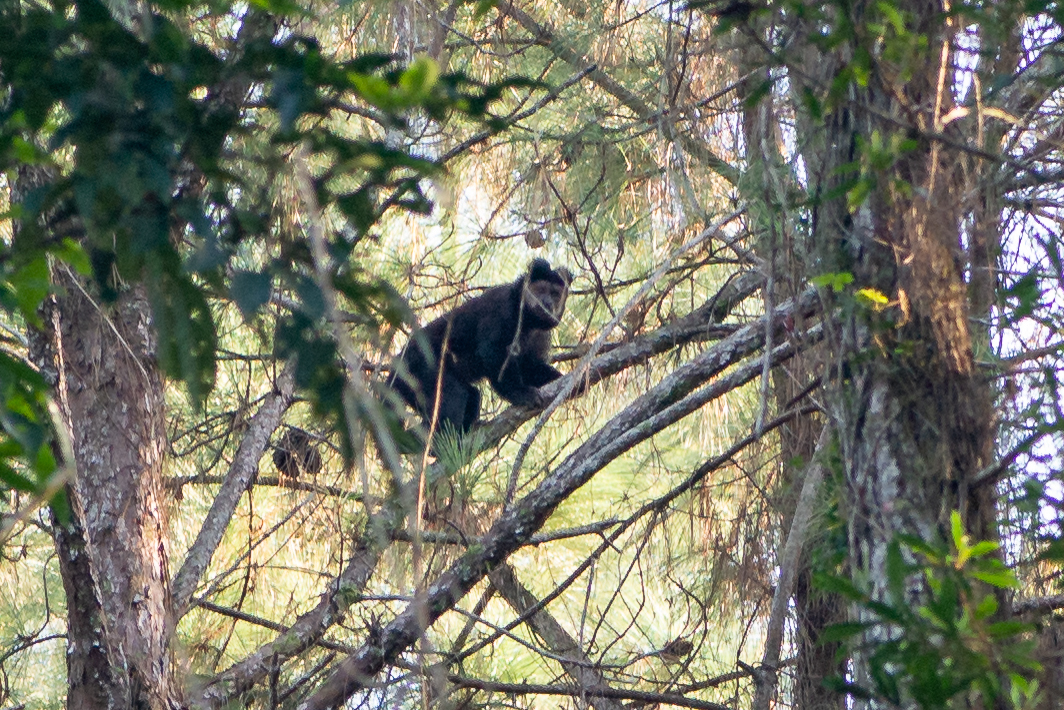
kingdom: Animalia
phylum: Chordata
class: Mammalia
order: Primates
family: Cebidae
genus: Sapajus
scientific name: Sapajus nigritus
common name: Black capuchin
